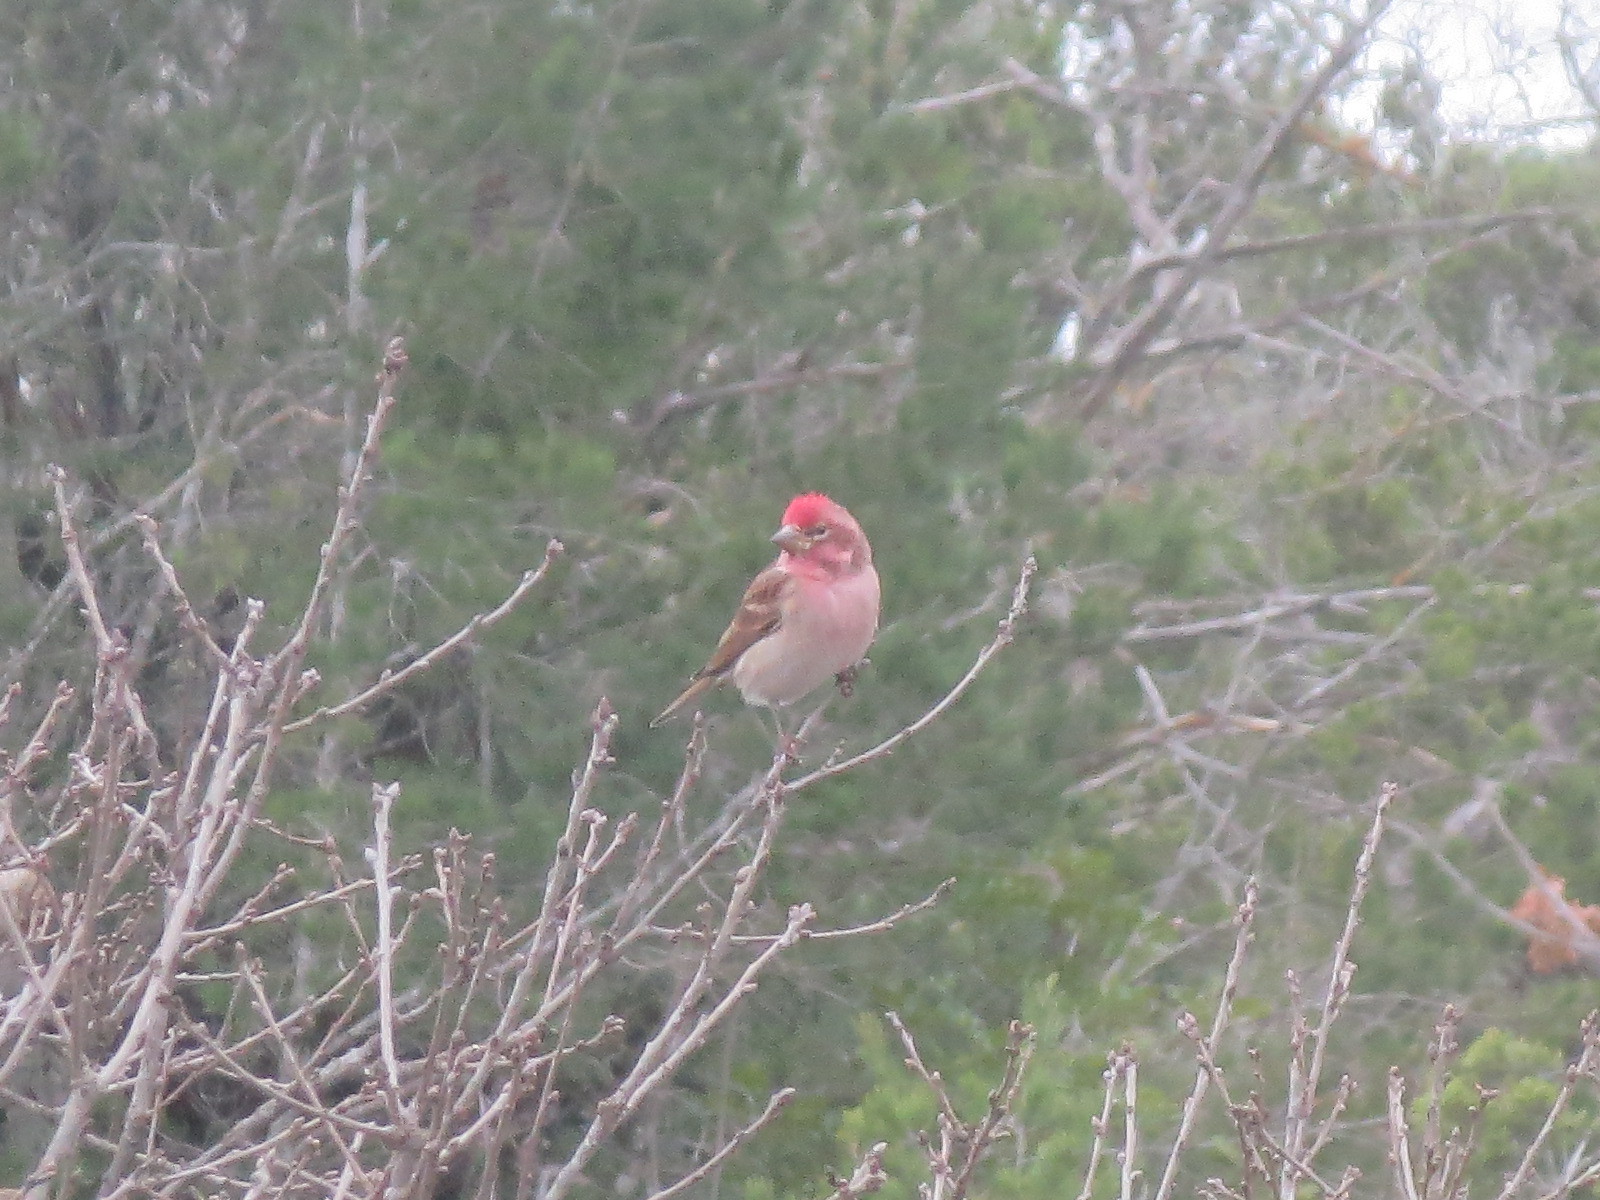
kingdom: Animalia
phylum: Chordata
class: Aves
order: Passeriformes
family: Fringillidae
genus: Haemorhous
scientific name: Haemorhous cassinii
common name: Cassin's finch
